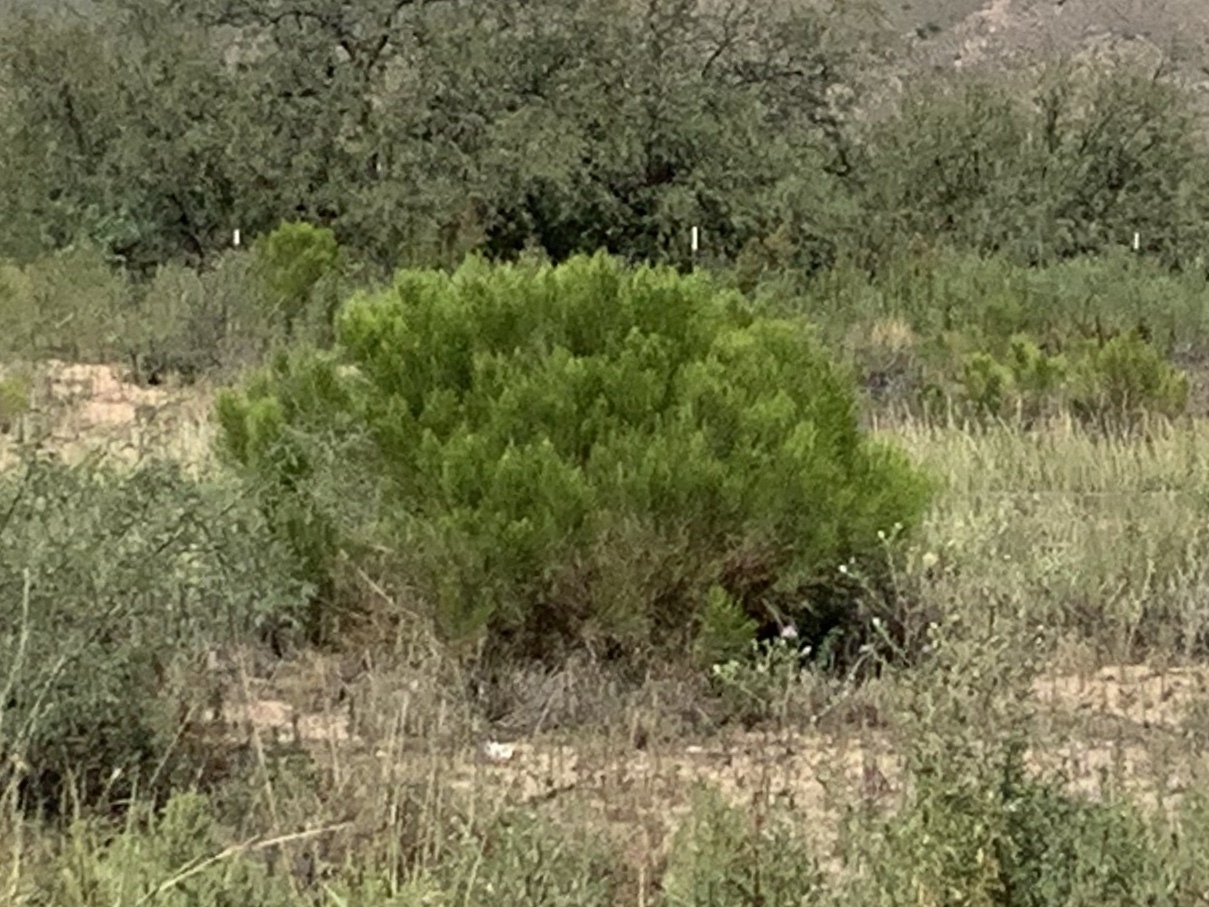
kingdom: Plantae
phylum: Tracheophyta
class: Magnoliopsida
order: Asterales
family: Asteraceae
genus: Baccharis
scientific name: Baccharis sarothroides
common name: Desert-broom
